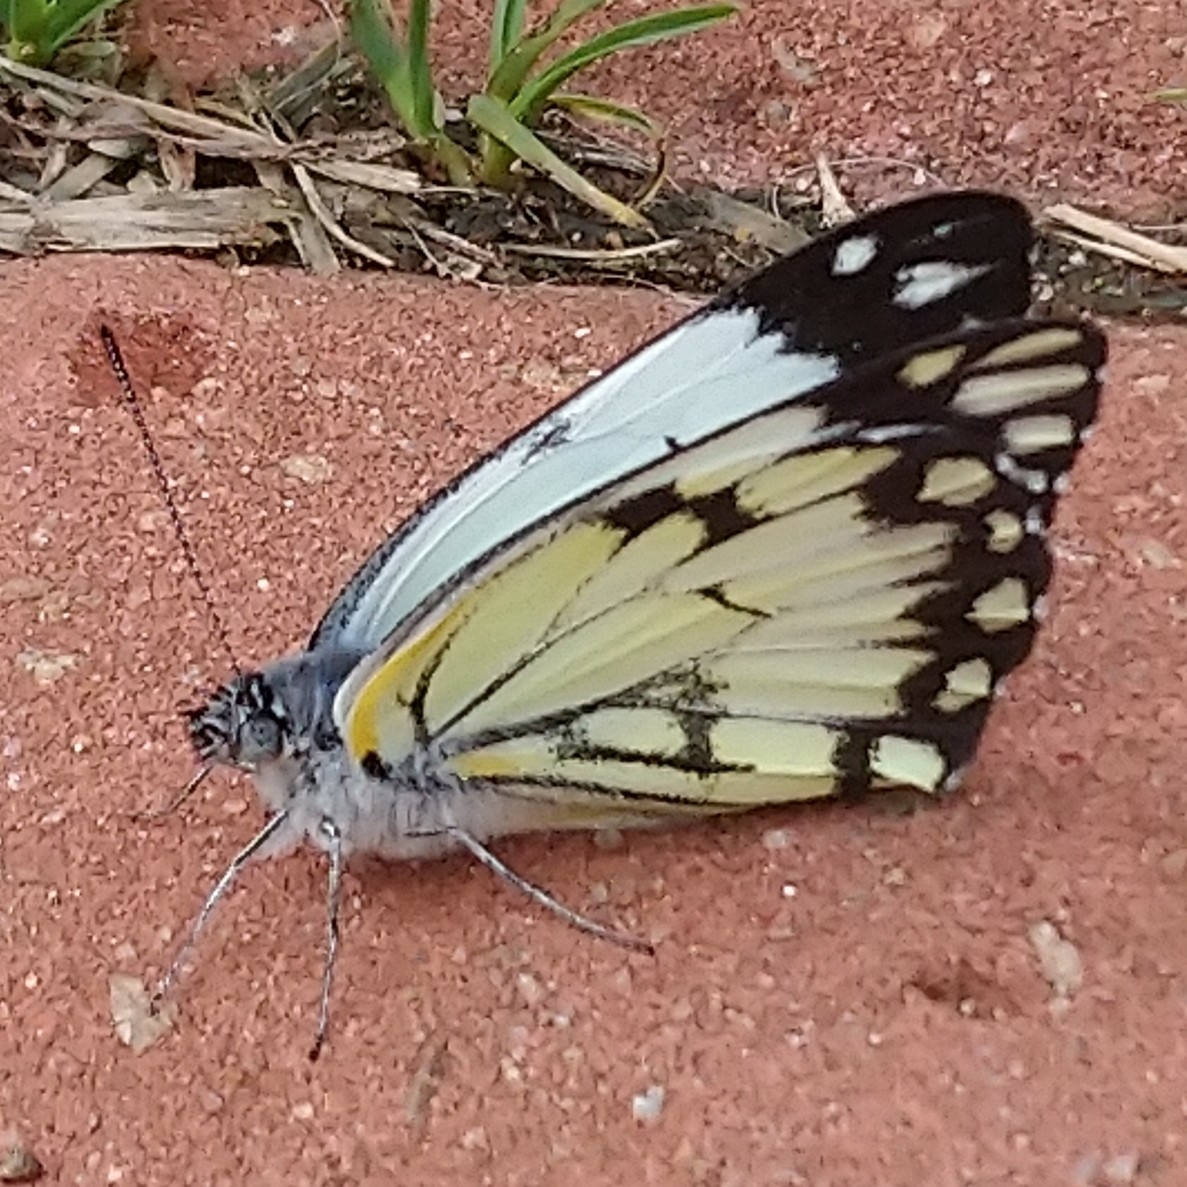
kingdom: Animalia
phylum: Arthropoda
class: Insecta
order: Lepidoptera
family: Pieridae
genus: Belenois
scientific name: Belenois creona
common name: African caper white
